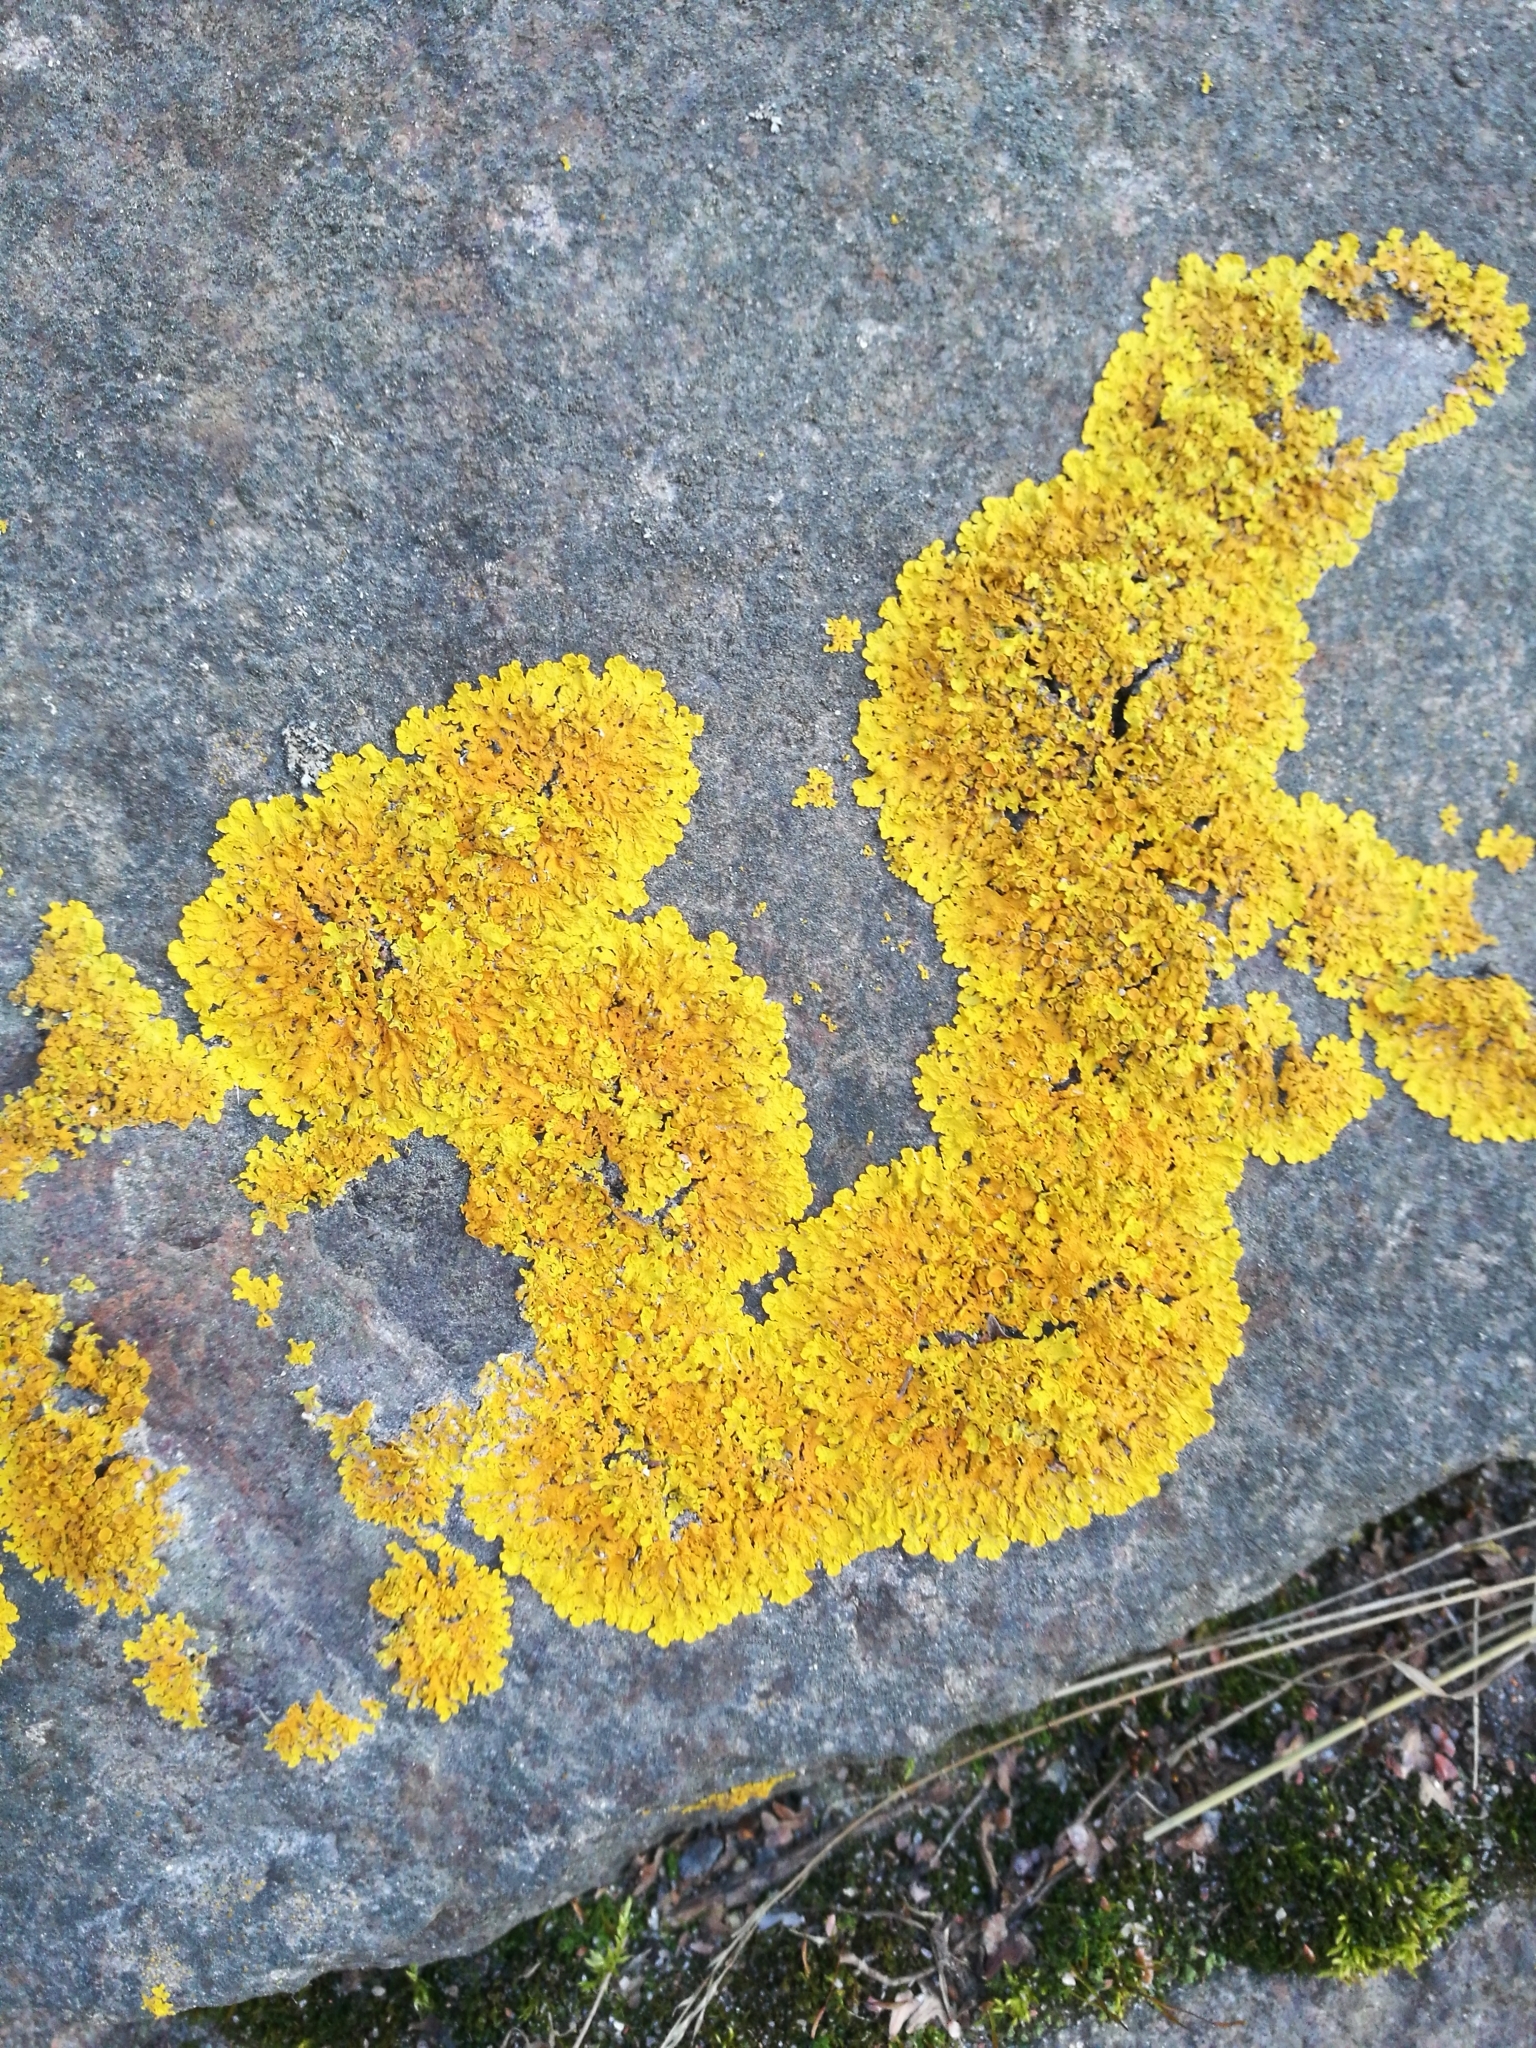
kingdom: Fungi
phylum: Ascomycota
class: Lecanoromycetes
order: Teloschistales
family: Teloschistaceae
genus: Xanthoria
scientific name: Xanthoria parietina
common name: Common orange lichen
